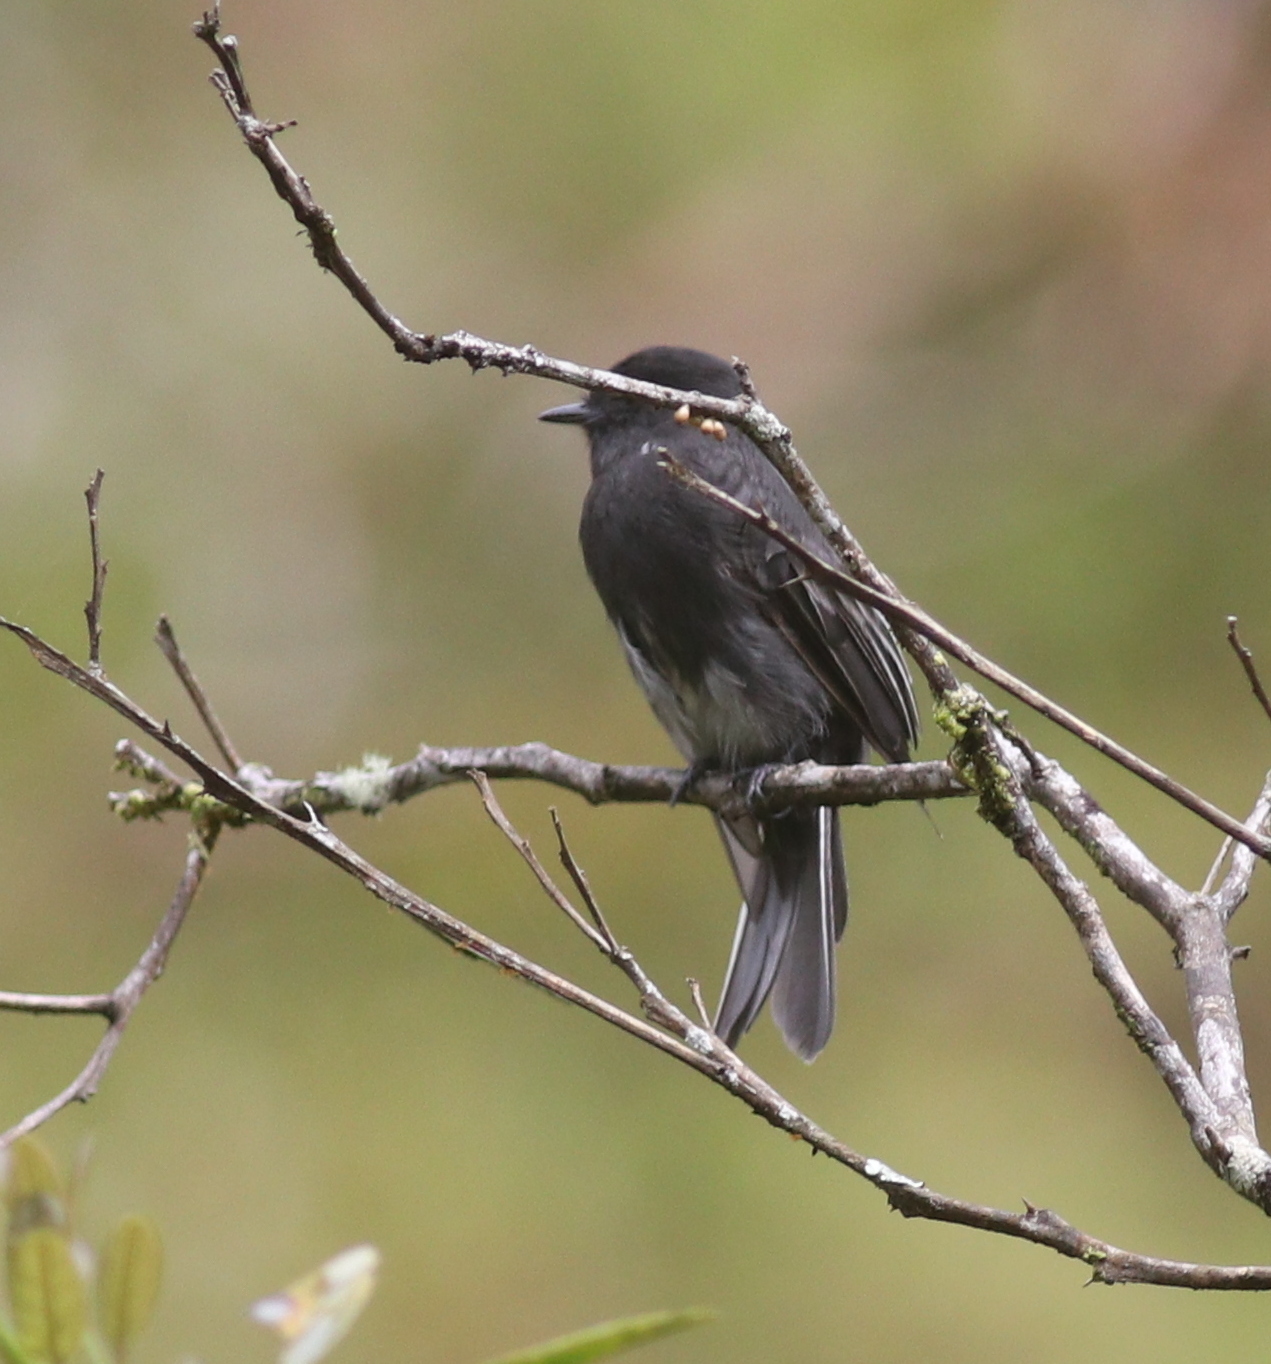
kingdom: Animalia
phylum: Chordata
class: Aves
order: Passeriformes
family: Tyrannidae
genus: Sayornis
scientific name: Sayornis nigricans
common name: Black phoebe
